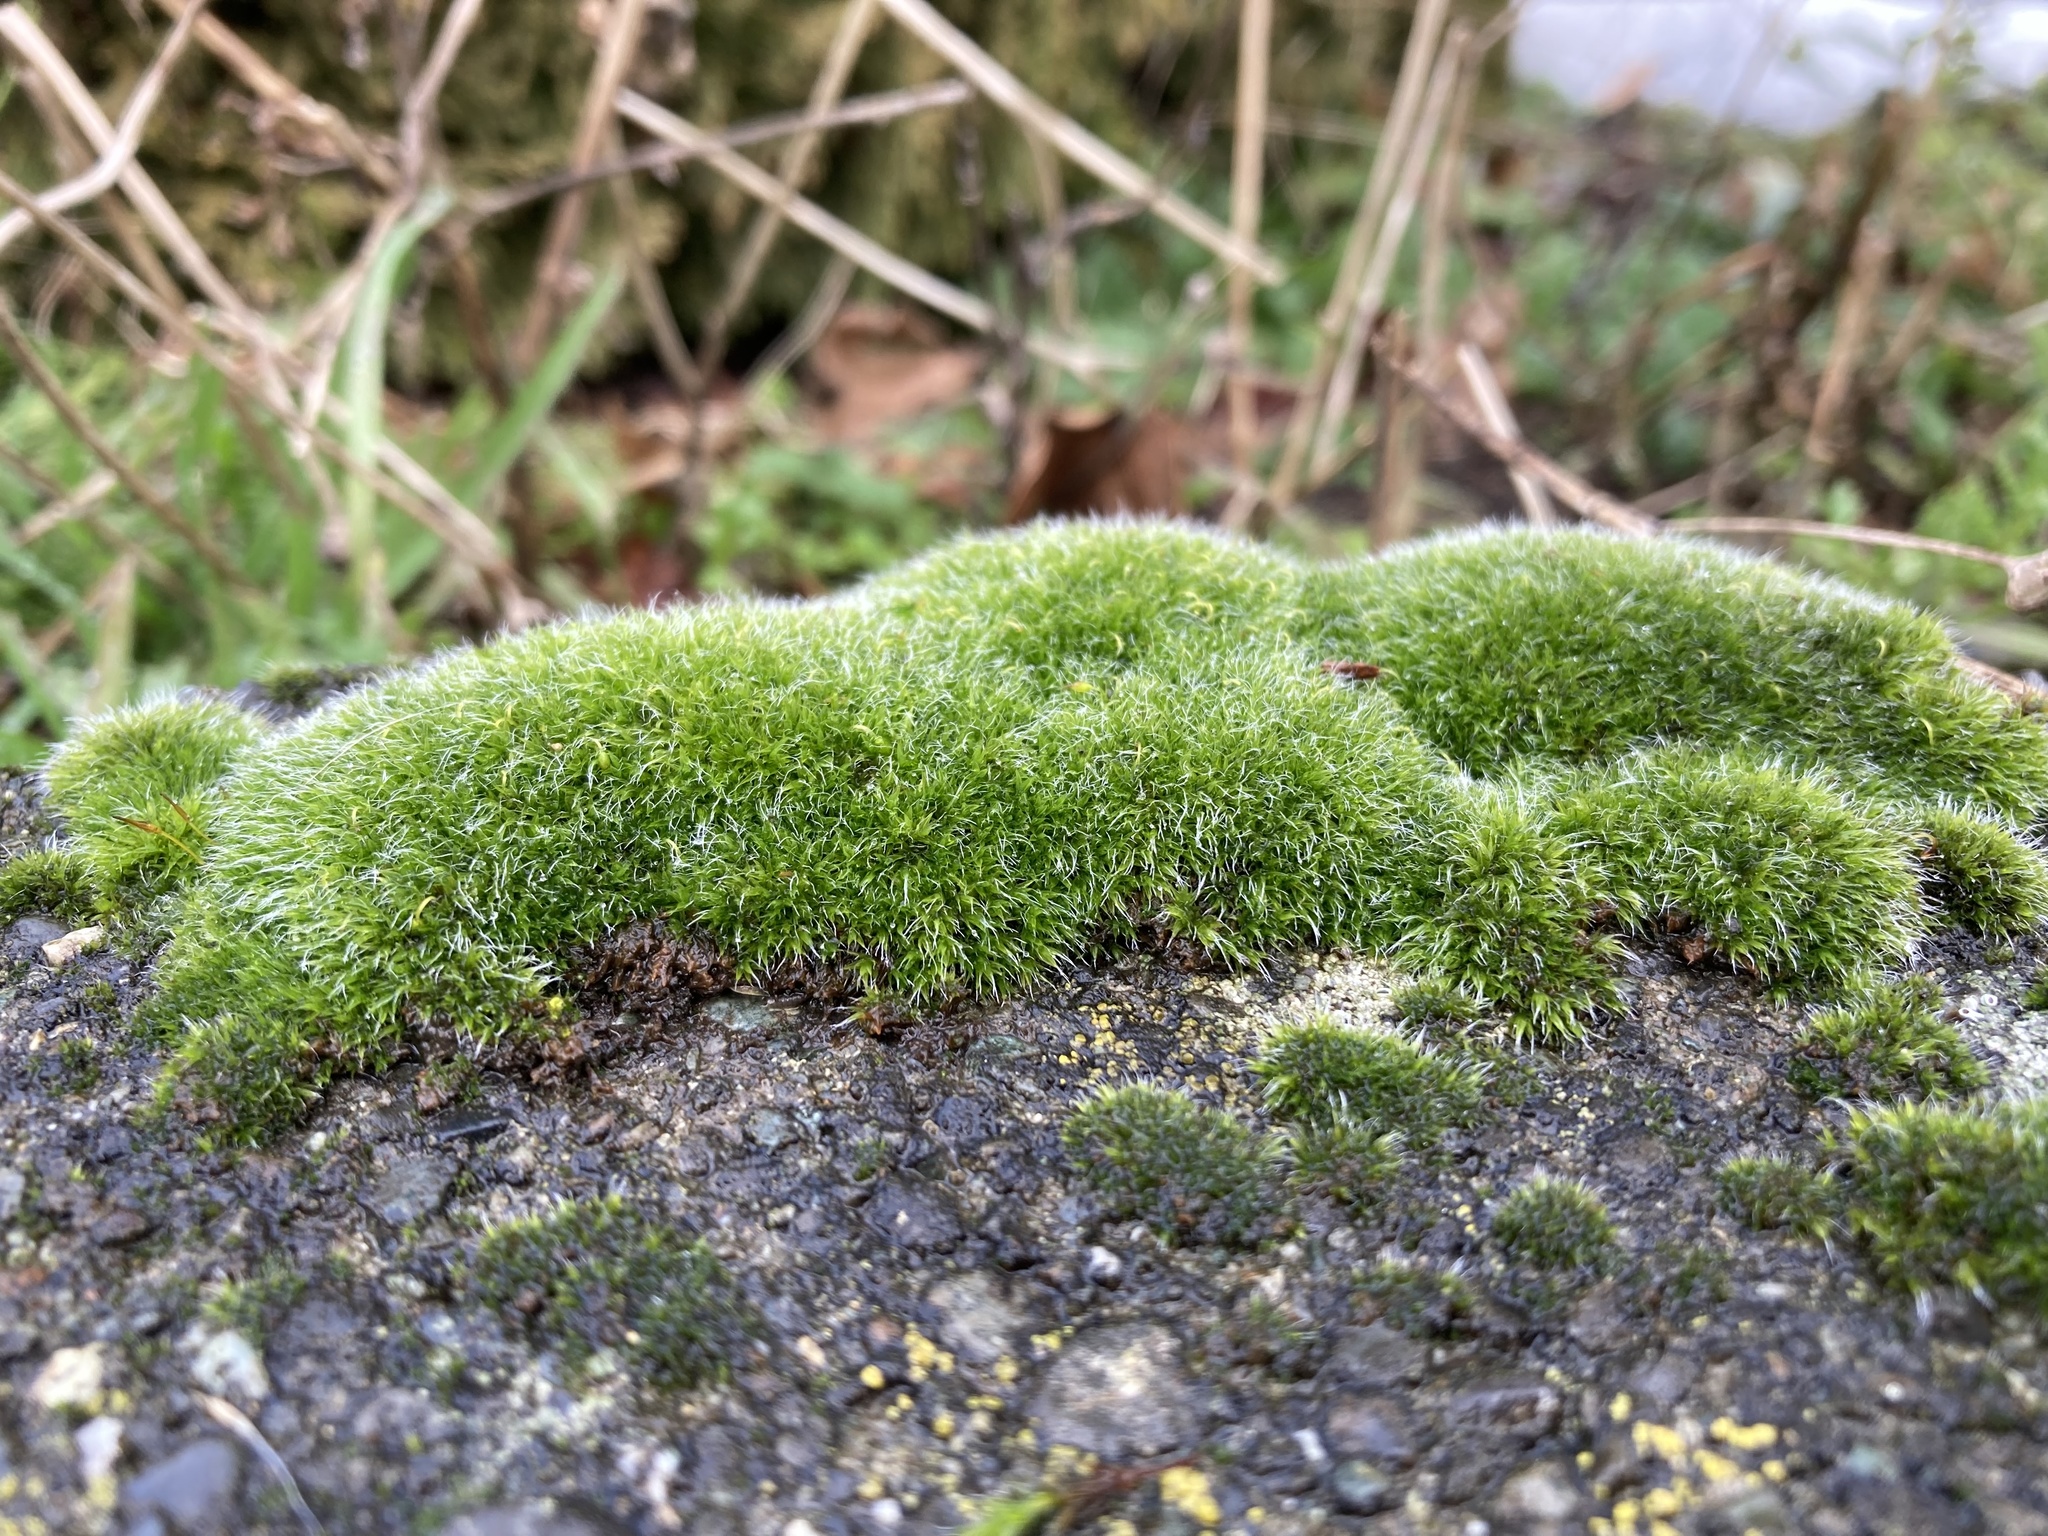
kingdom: Plantae
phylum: Bryophyta
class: Bryopsida
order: Grimmiales
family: Grimmiaceae
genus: Grimmia
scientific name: Grimmia pulvinata
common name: Grey-cushioned grimmia
